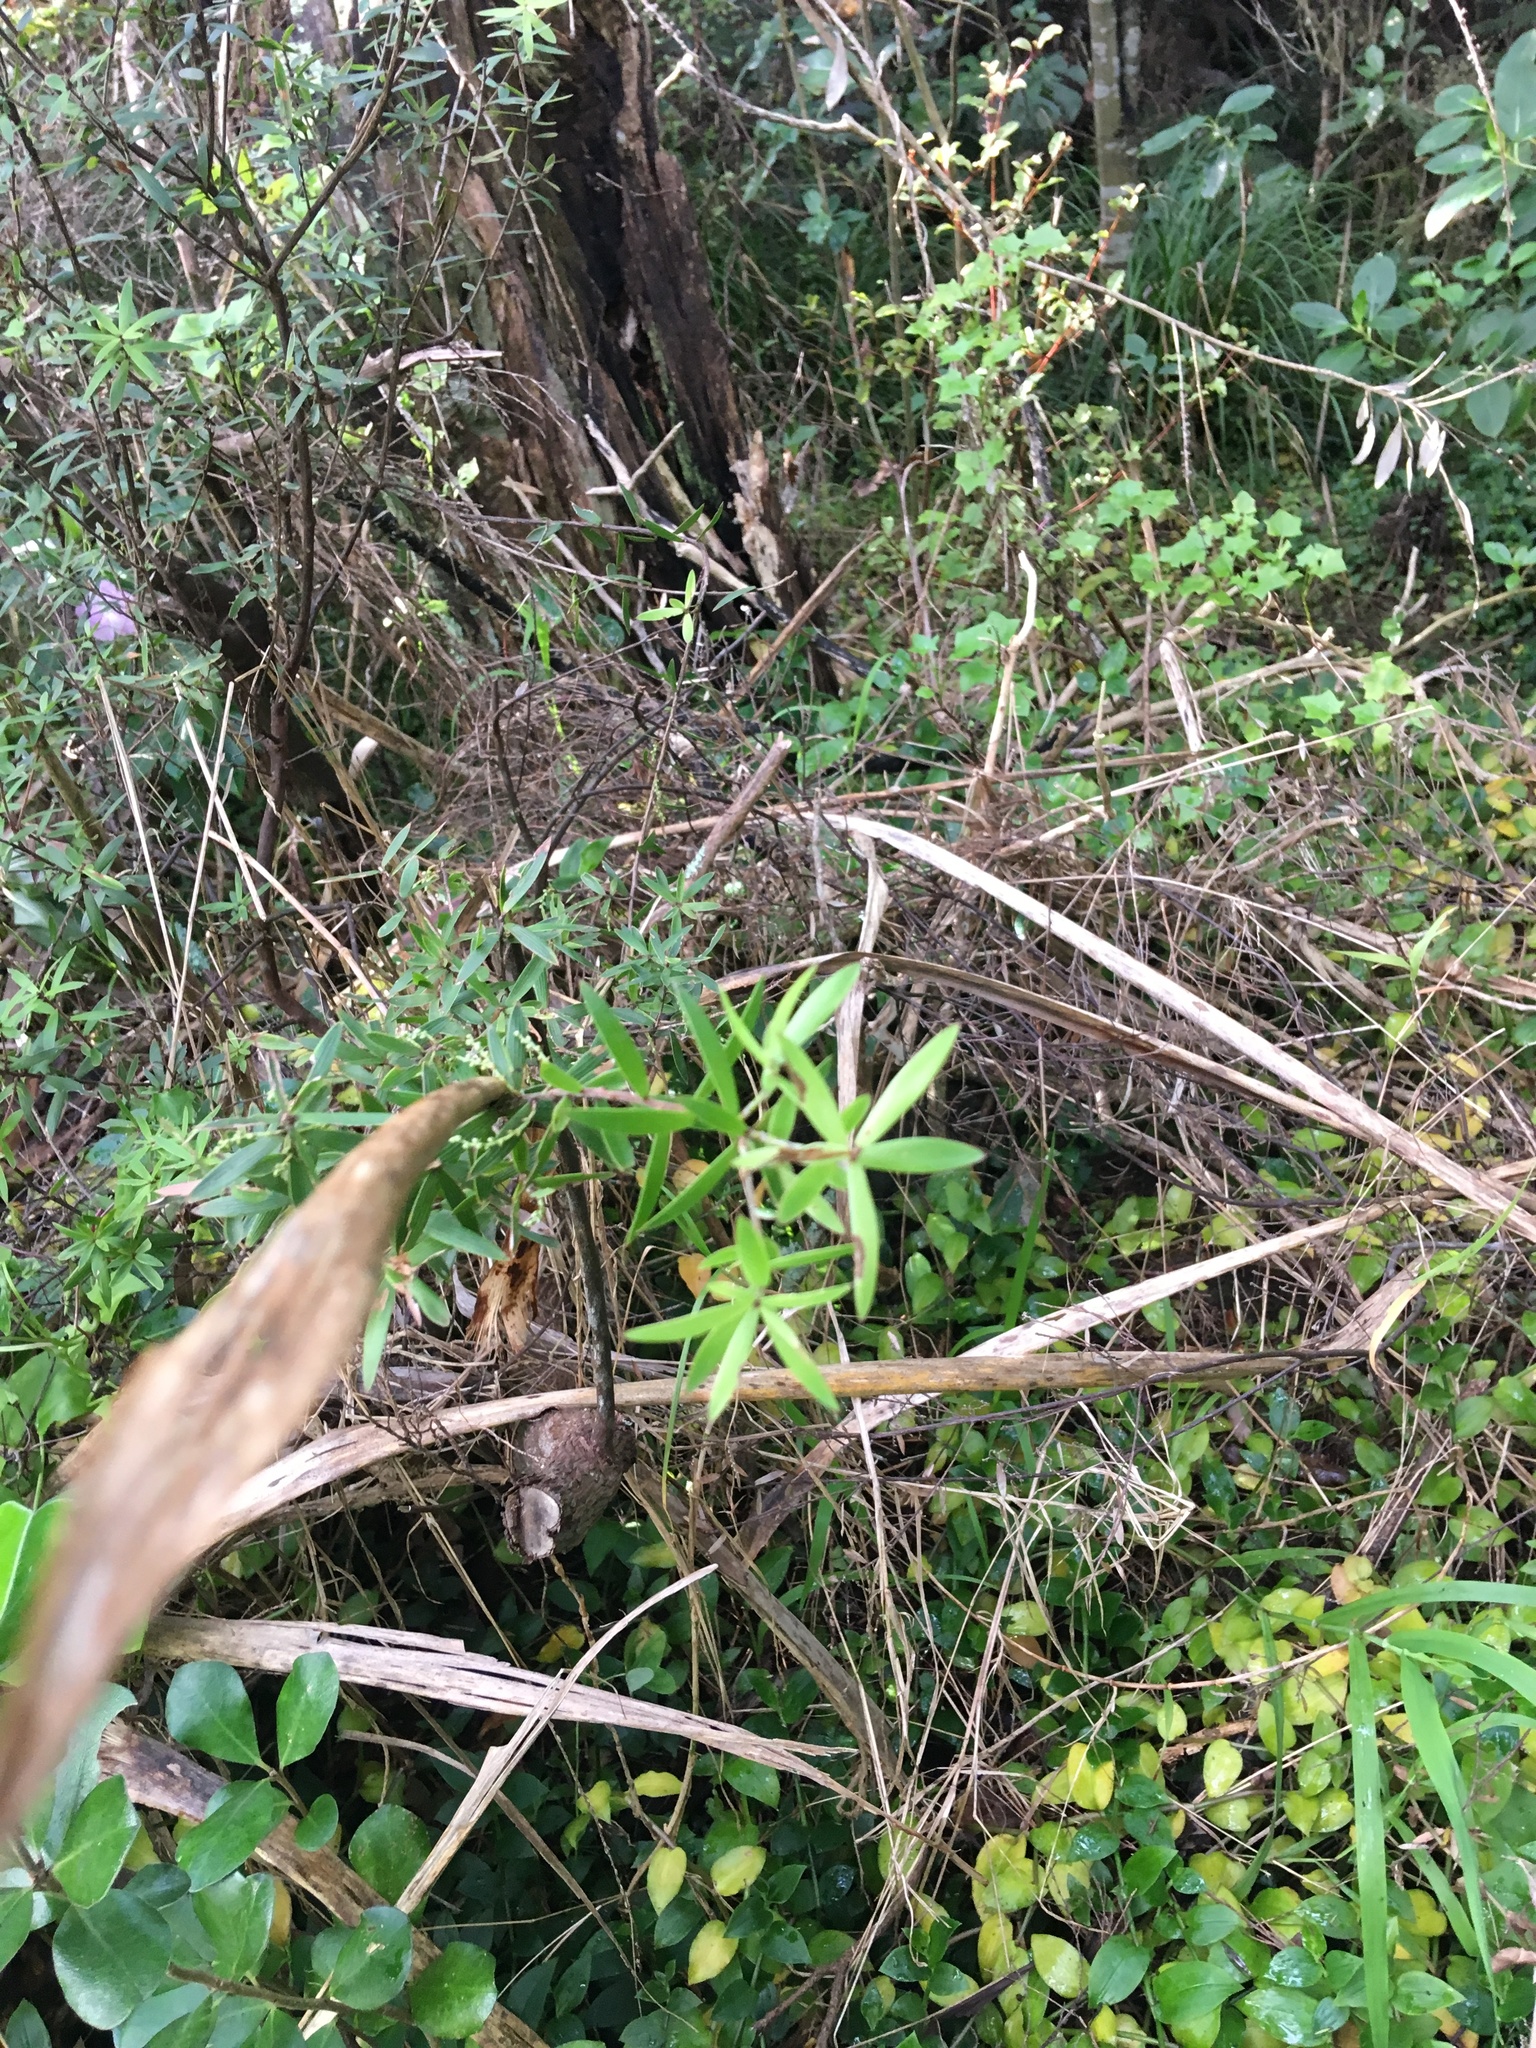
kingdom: Plantae
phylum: Tracheophyta
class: Magnoliopsida
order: Ericales
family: Ericaceae
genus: Leucopogon
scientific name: Leucopogon fasciculatus
